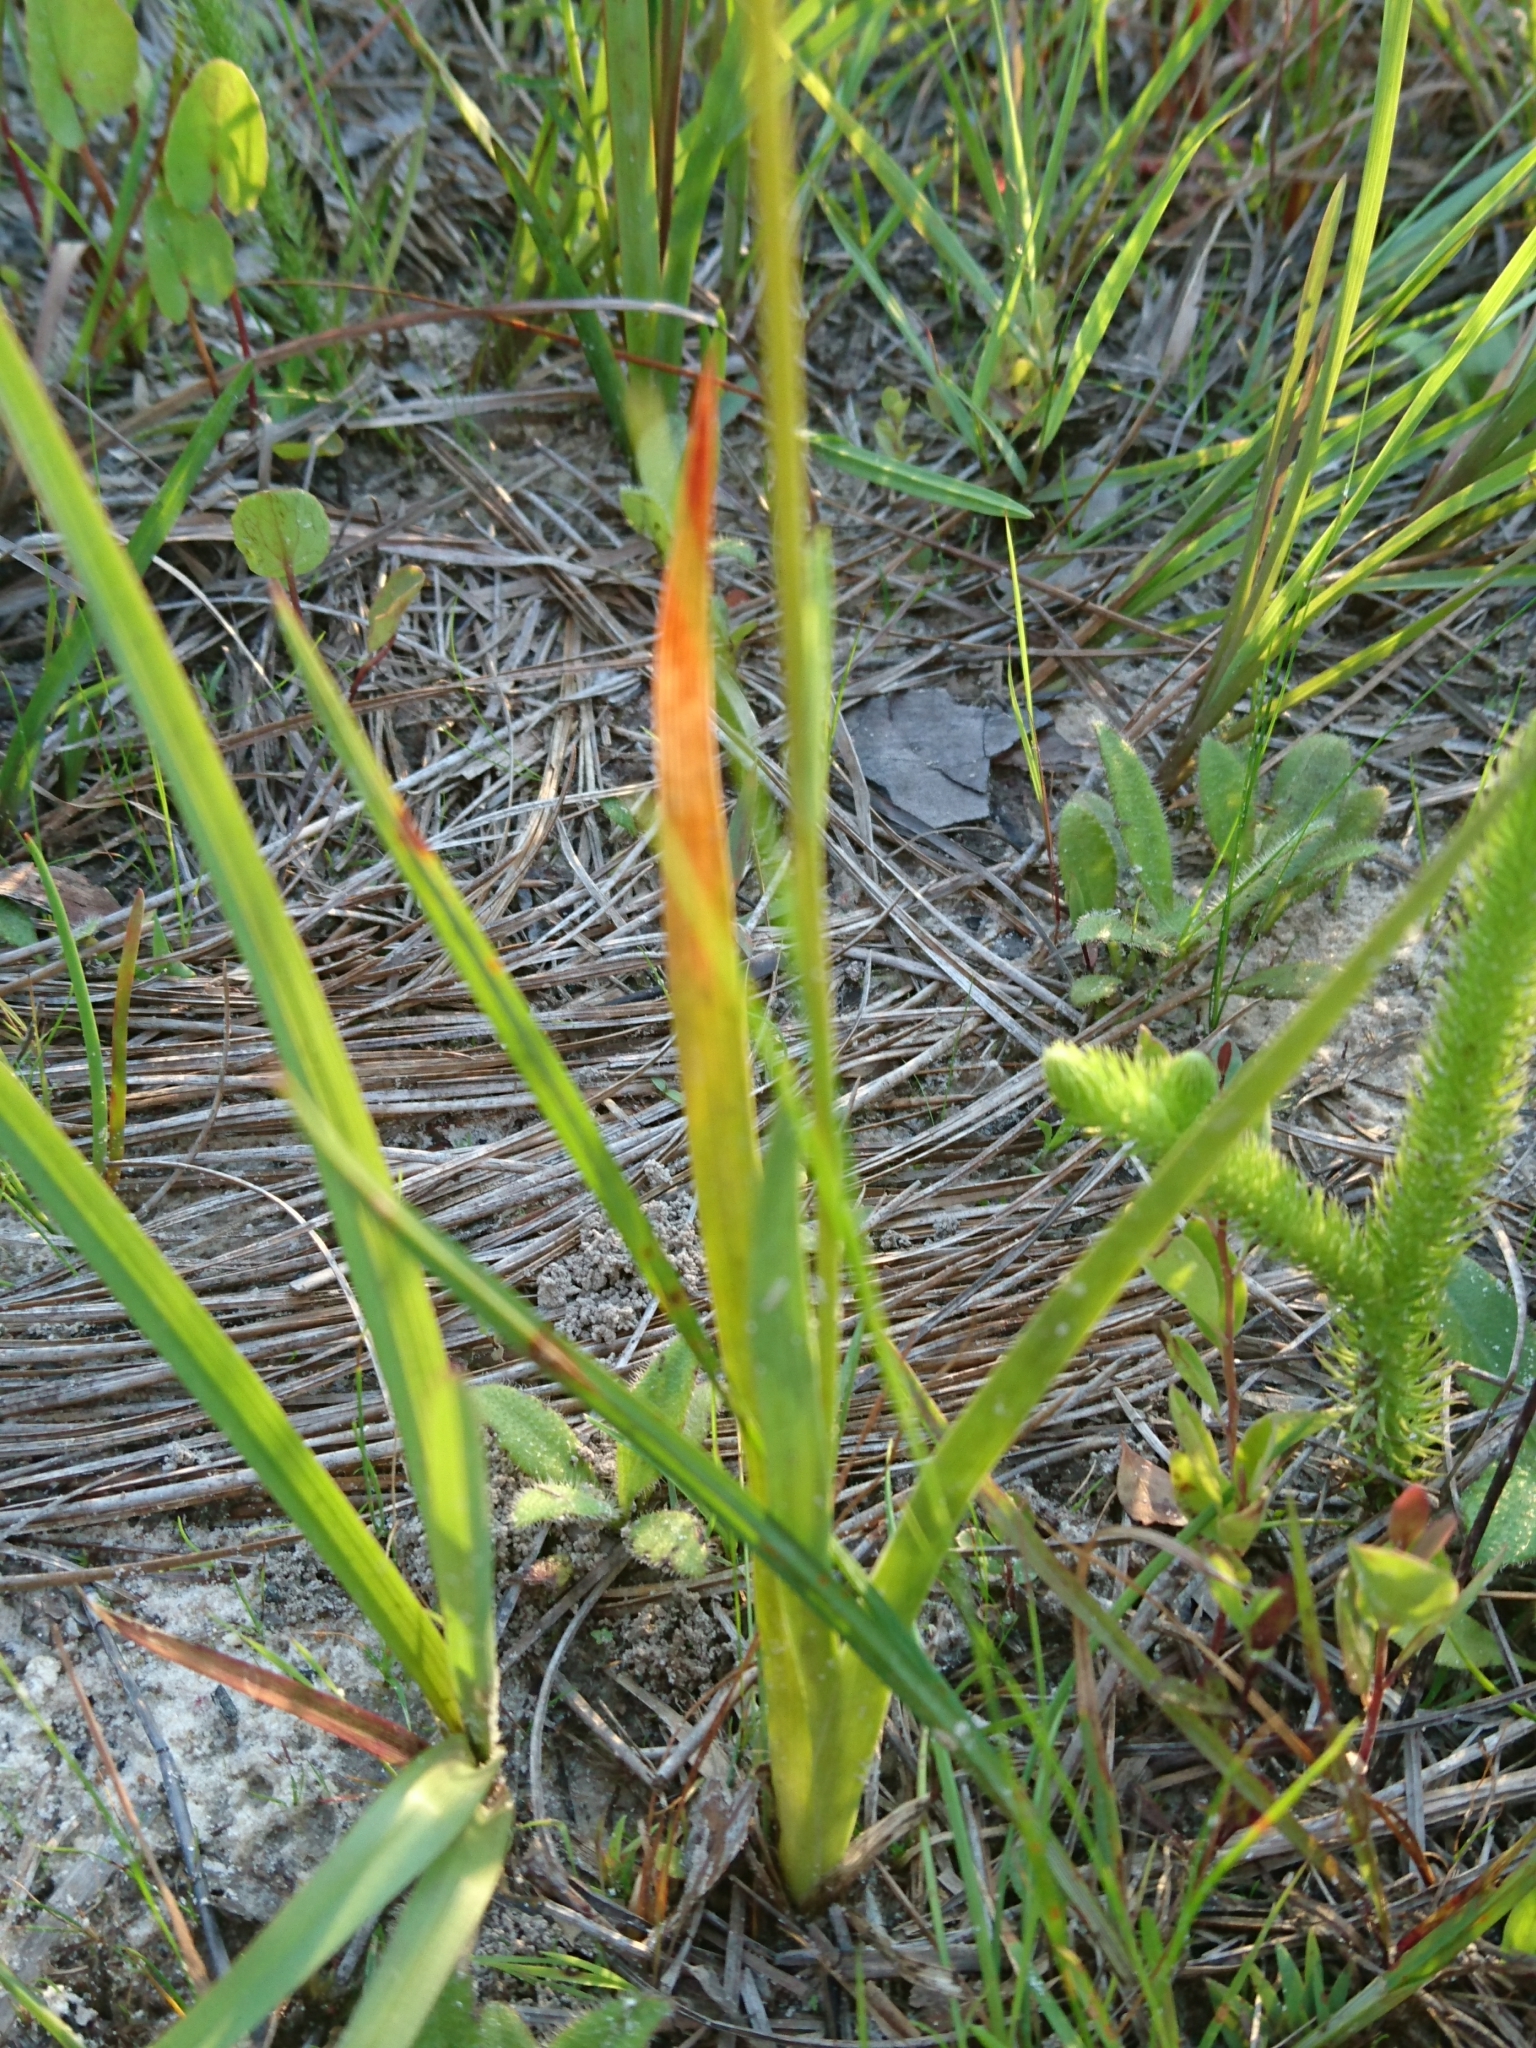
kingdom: Plantae
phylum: Tracheophyta
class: Liliopsida
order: Alismatales
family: Tofieldiaceae
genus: Triantha
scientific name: Triantha racemosa
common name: Coastal false asphodel
